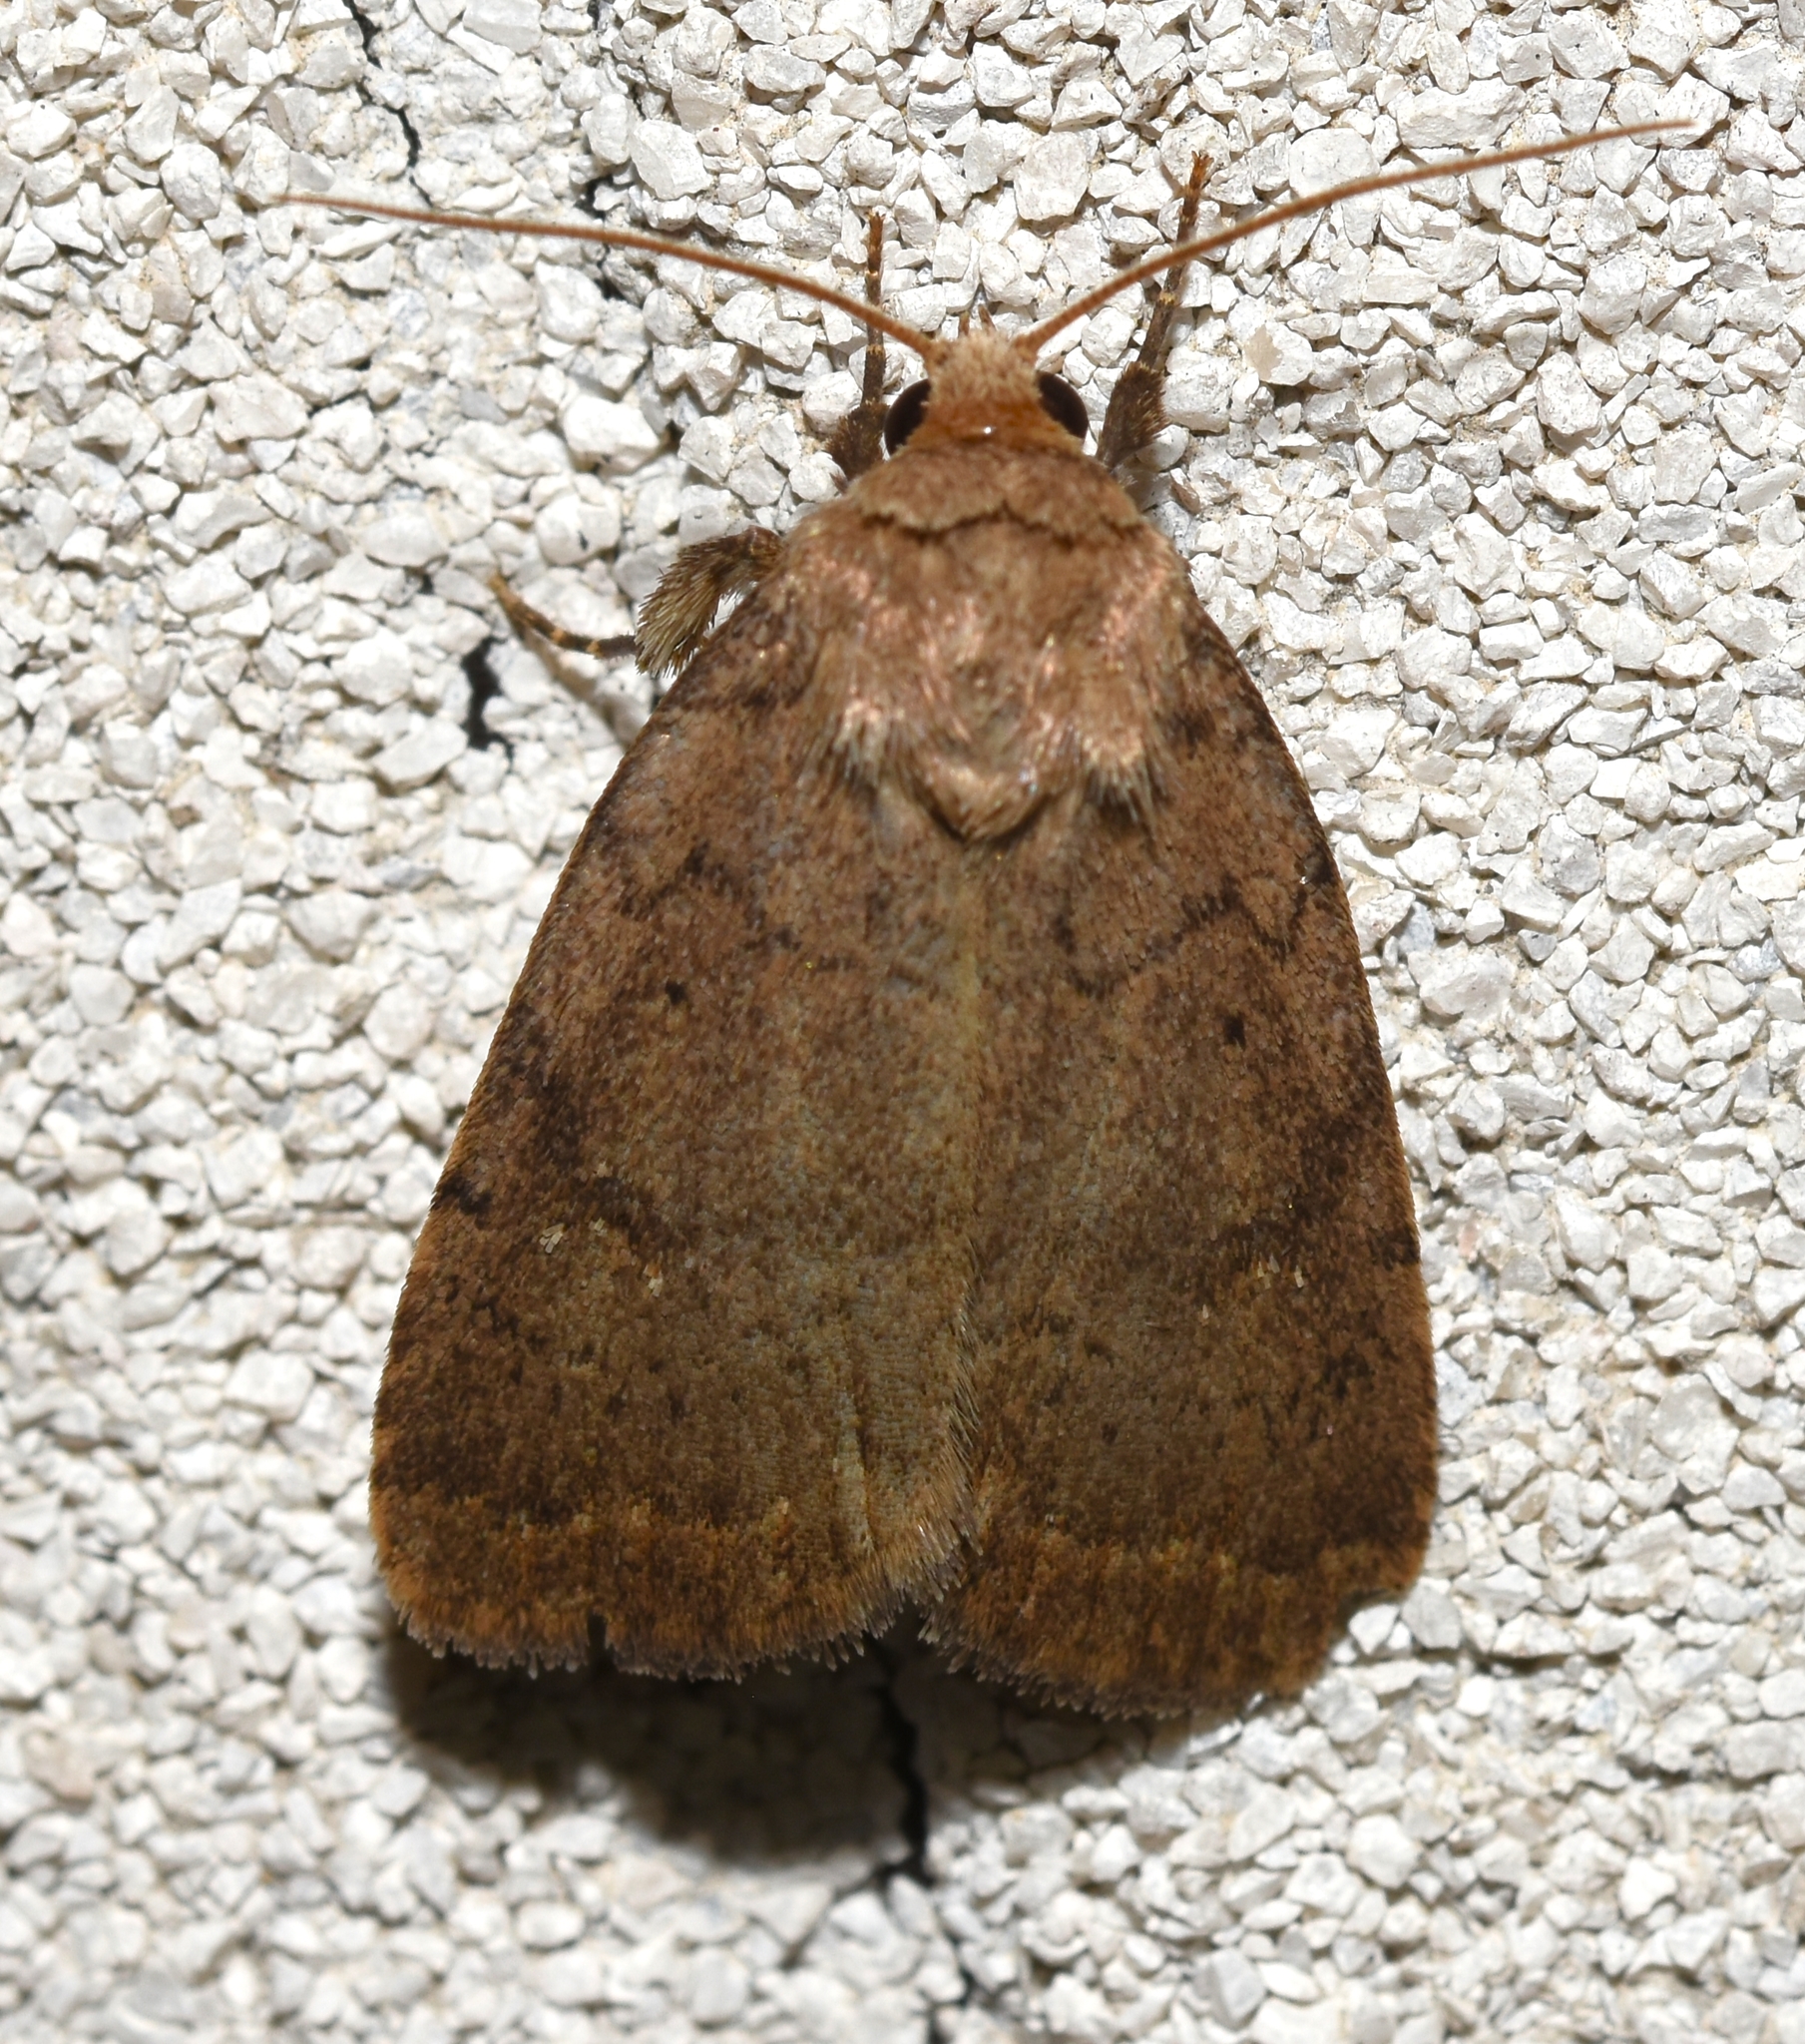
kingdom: Animalia
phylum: Arthropoda
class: Insecta
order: Lepidoptera
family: Noctuidae
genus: Athetis
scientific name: Athetis tarda
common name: Slowpoke moth
